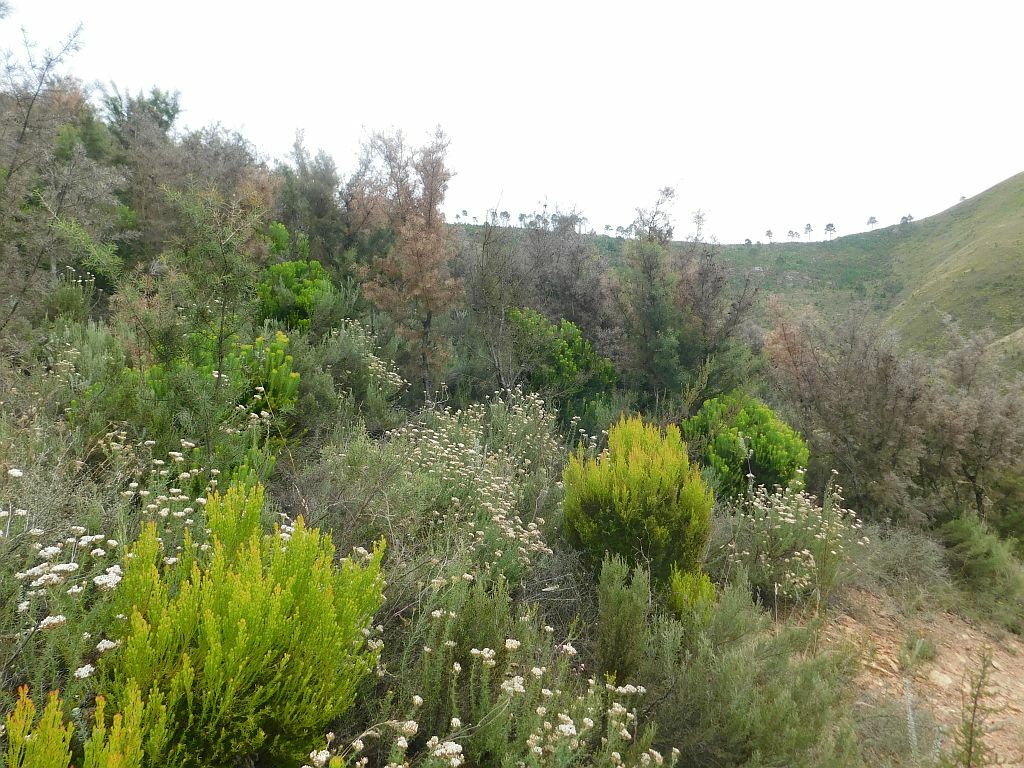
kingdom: Plantae
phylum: Tracheophyta
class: Magnoliopsida
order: Proteales
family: Proteaceae
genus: Hakea
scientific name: Hakea sericea
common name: Needle bush
